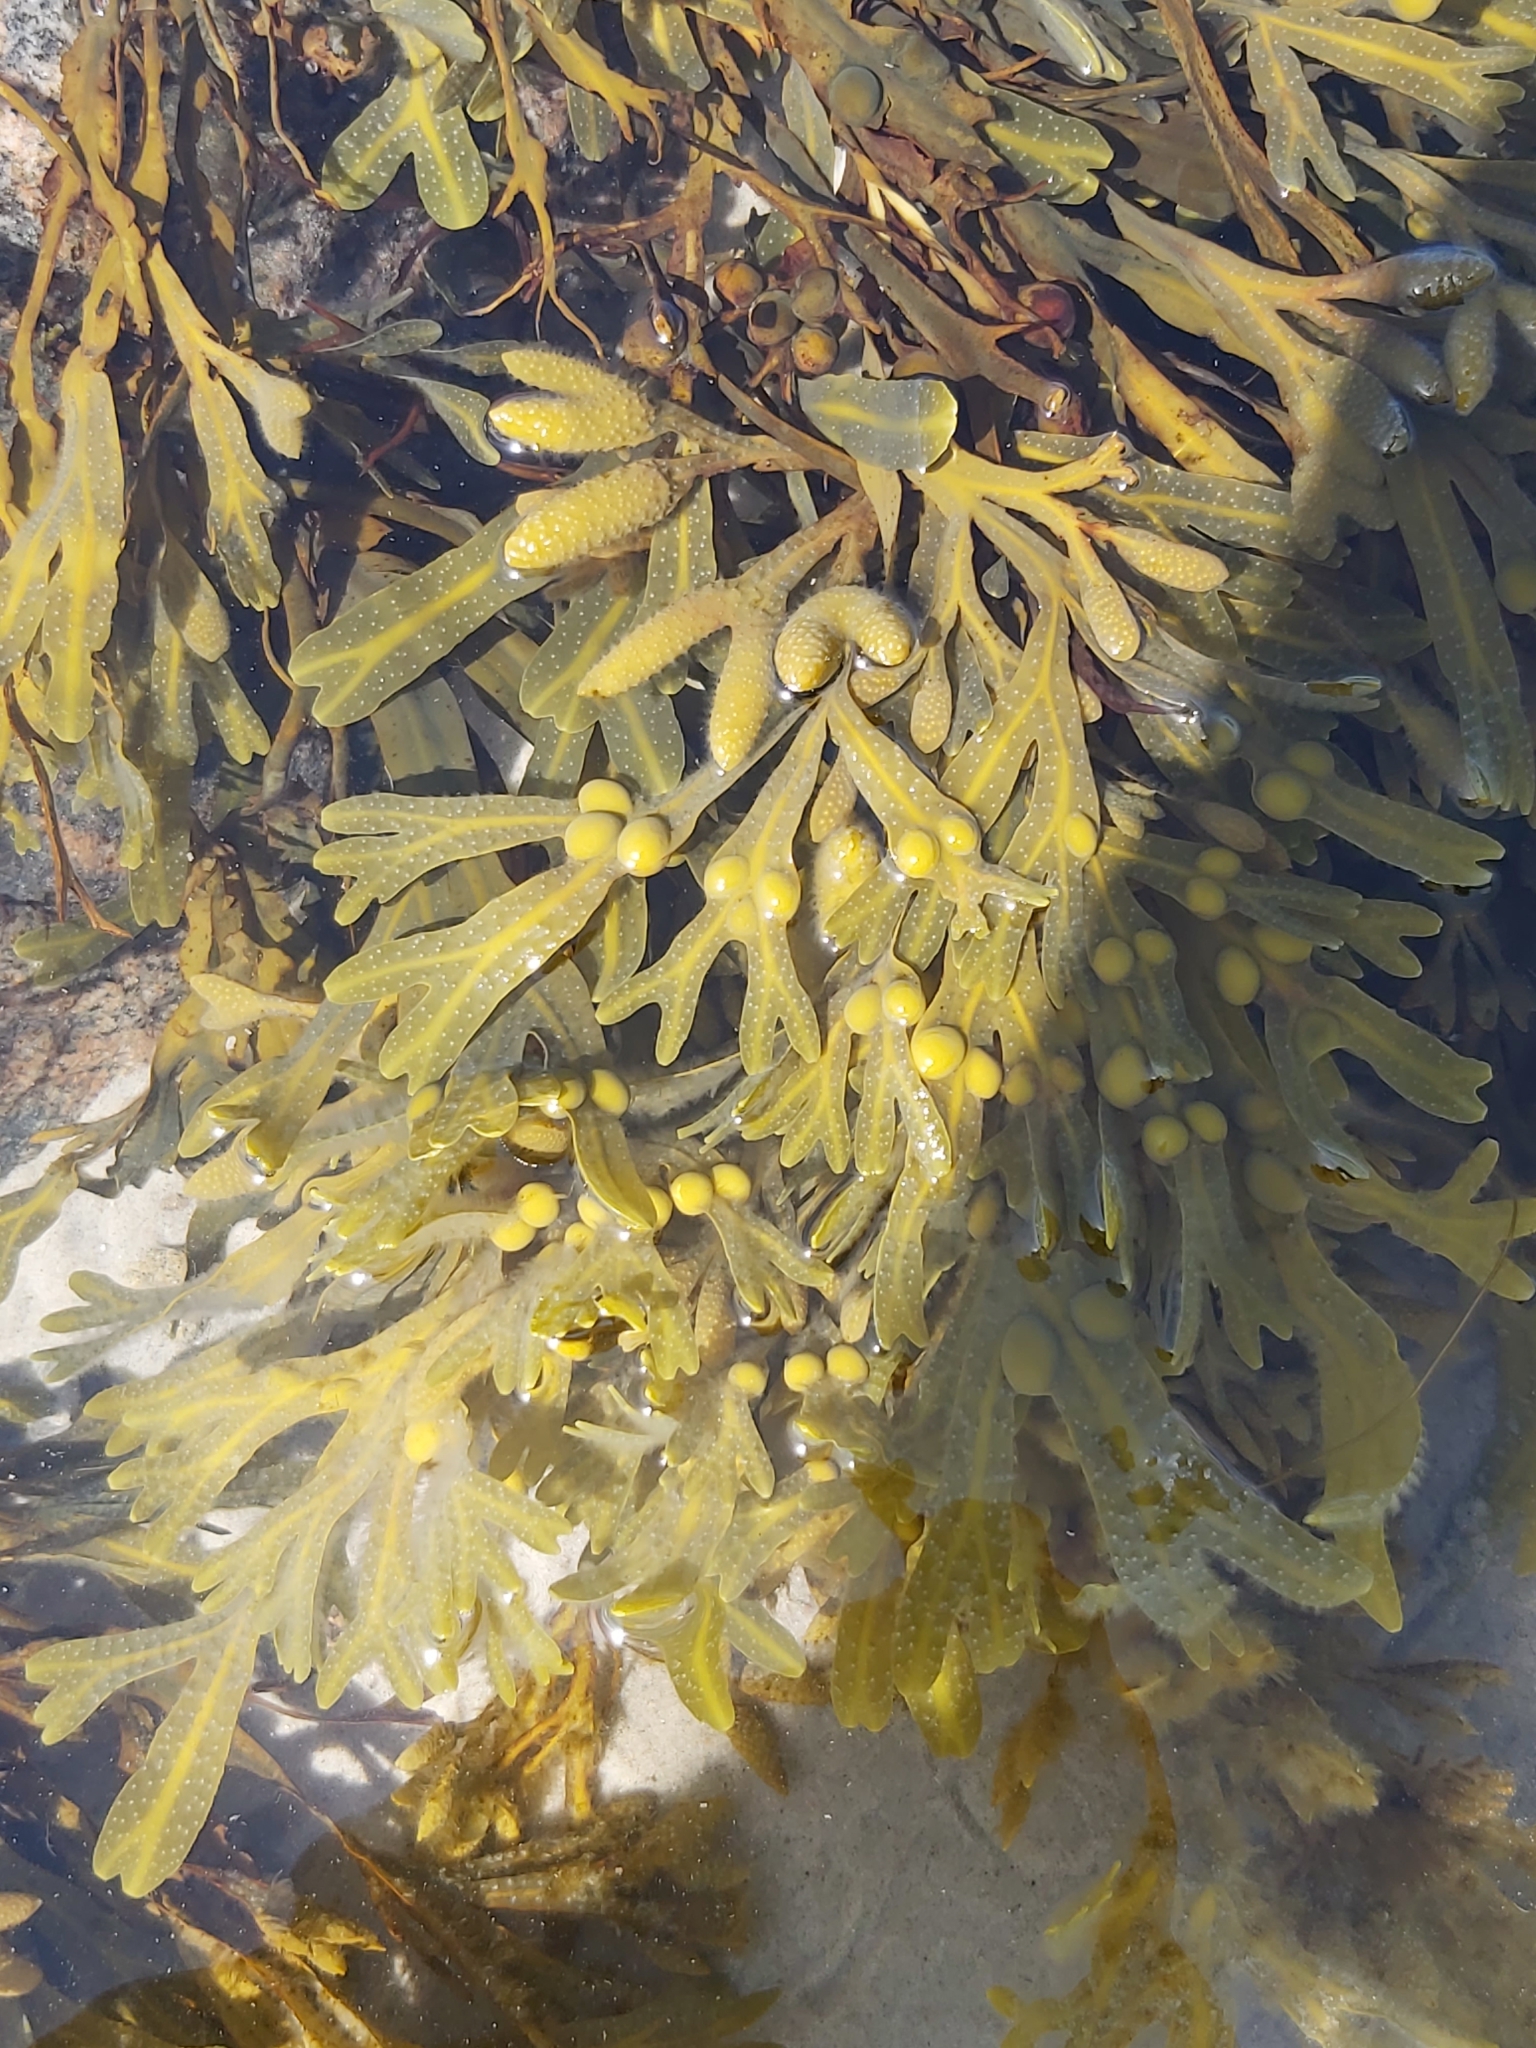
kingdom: Chromista
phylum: Ochrophyta
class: Phaeophyceae
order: Fucales
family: Fucaceae
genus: Fucus
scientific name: Fucus vesiculosus
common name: Bladder wrack
